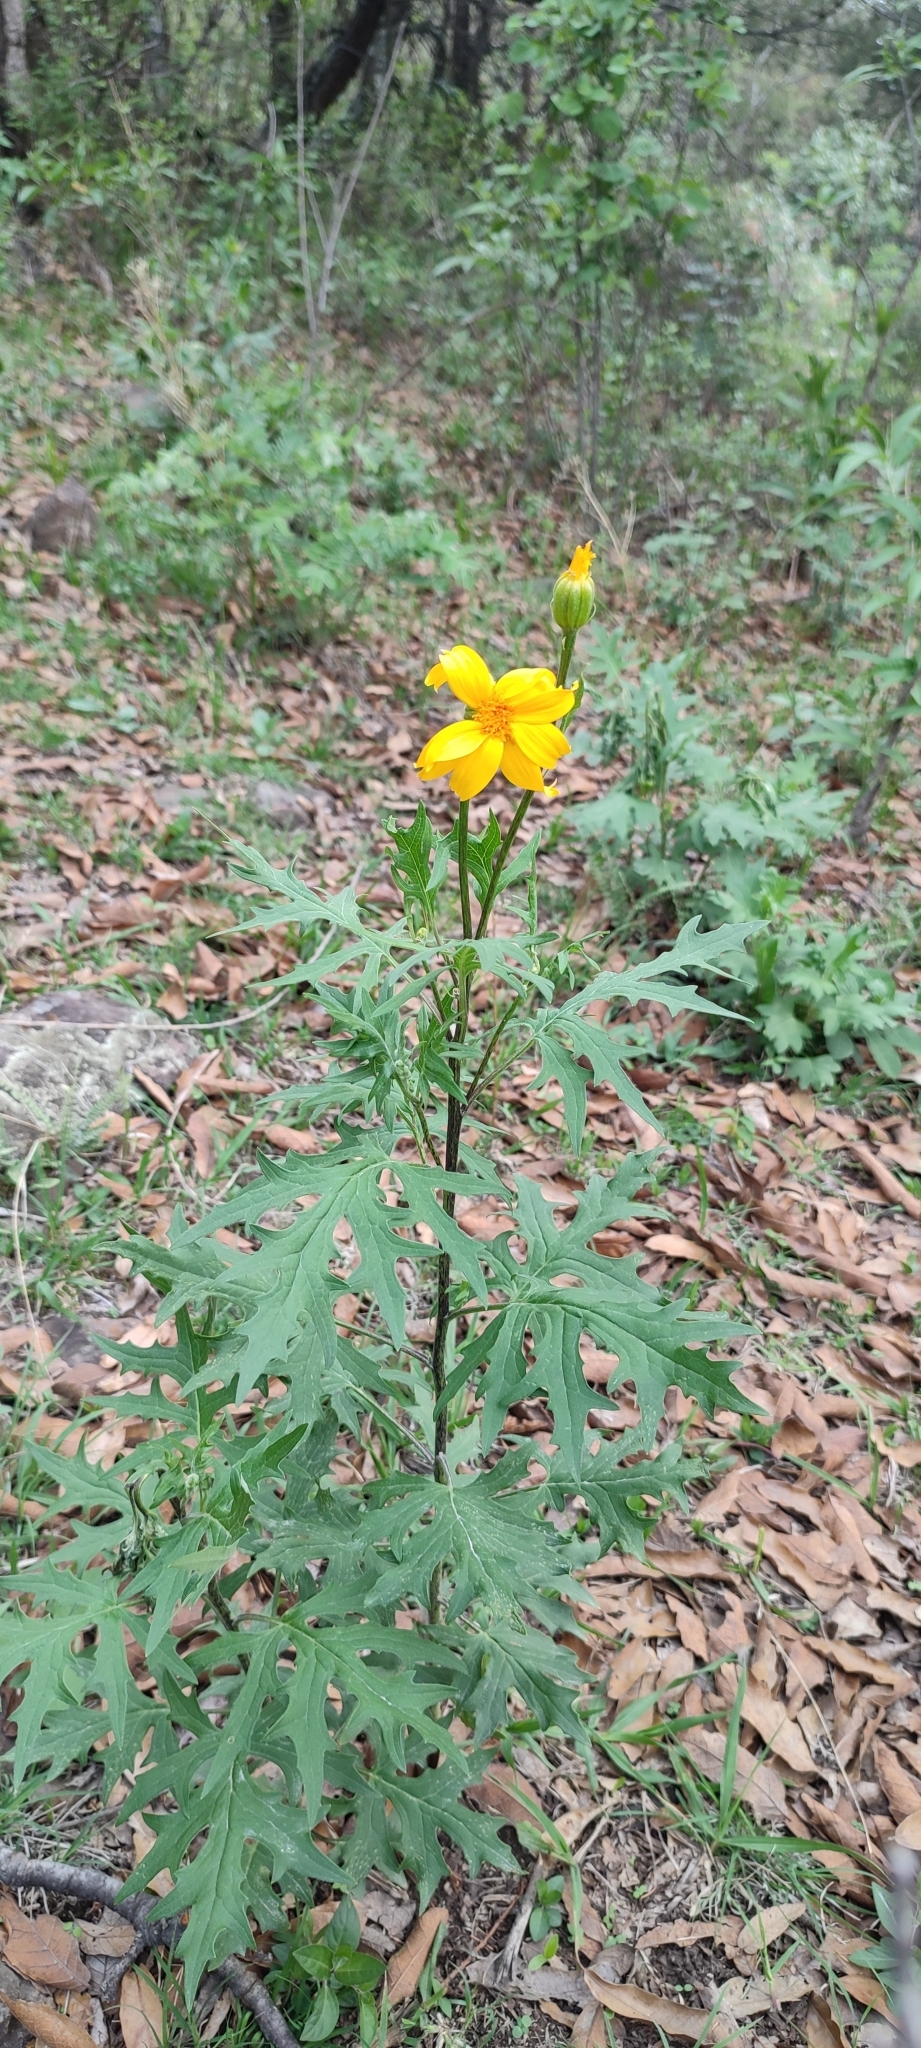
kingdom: Plantae
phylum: Tracheophyta
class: Magnoliopsida
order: Asterales
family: Asteraceae
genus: Roldana
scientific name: Roldana ehrenbergiana
